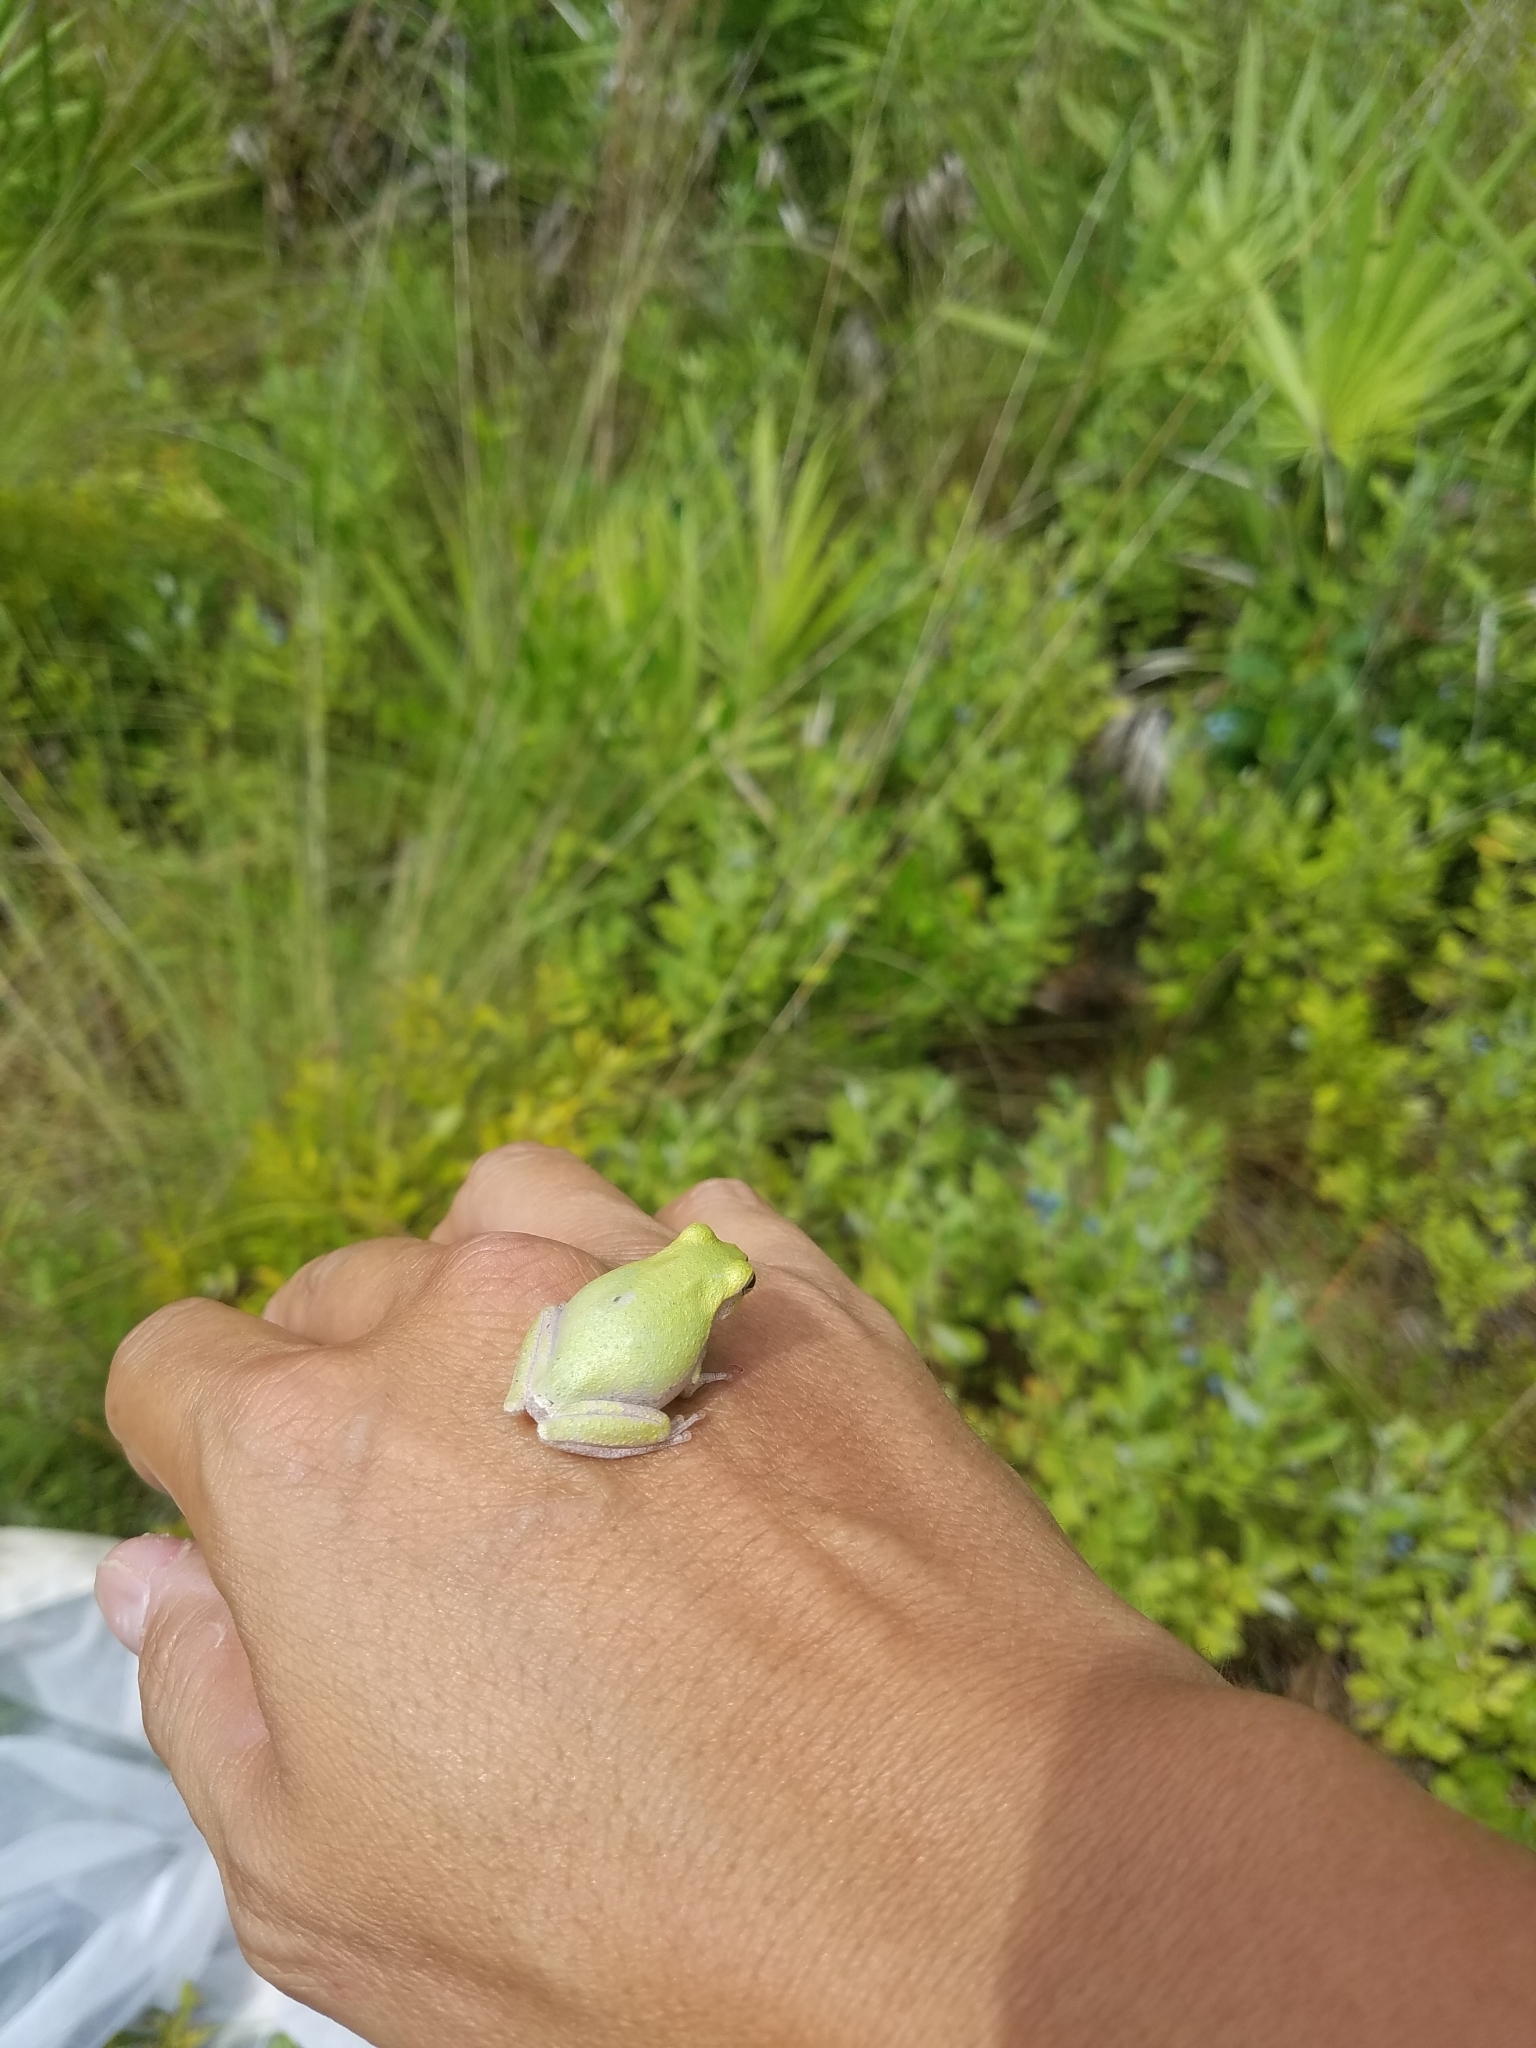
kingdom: Animalia
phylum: Chordata
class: Amphibia
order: Anura
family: Hylidae
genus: Dryophytes
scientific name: Dryophytes squirellus
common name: Squirrel treefrog
